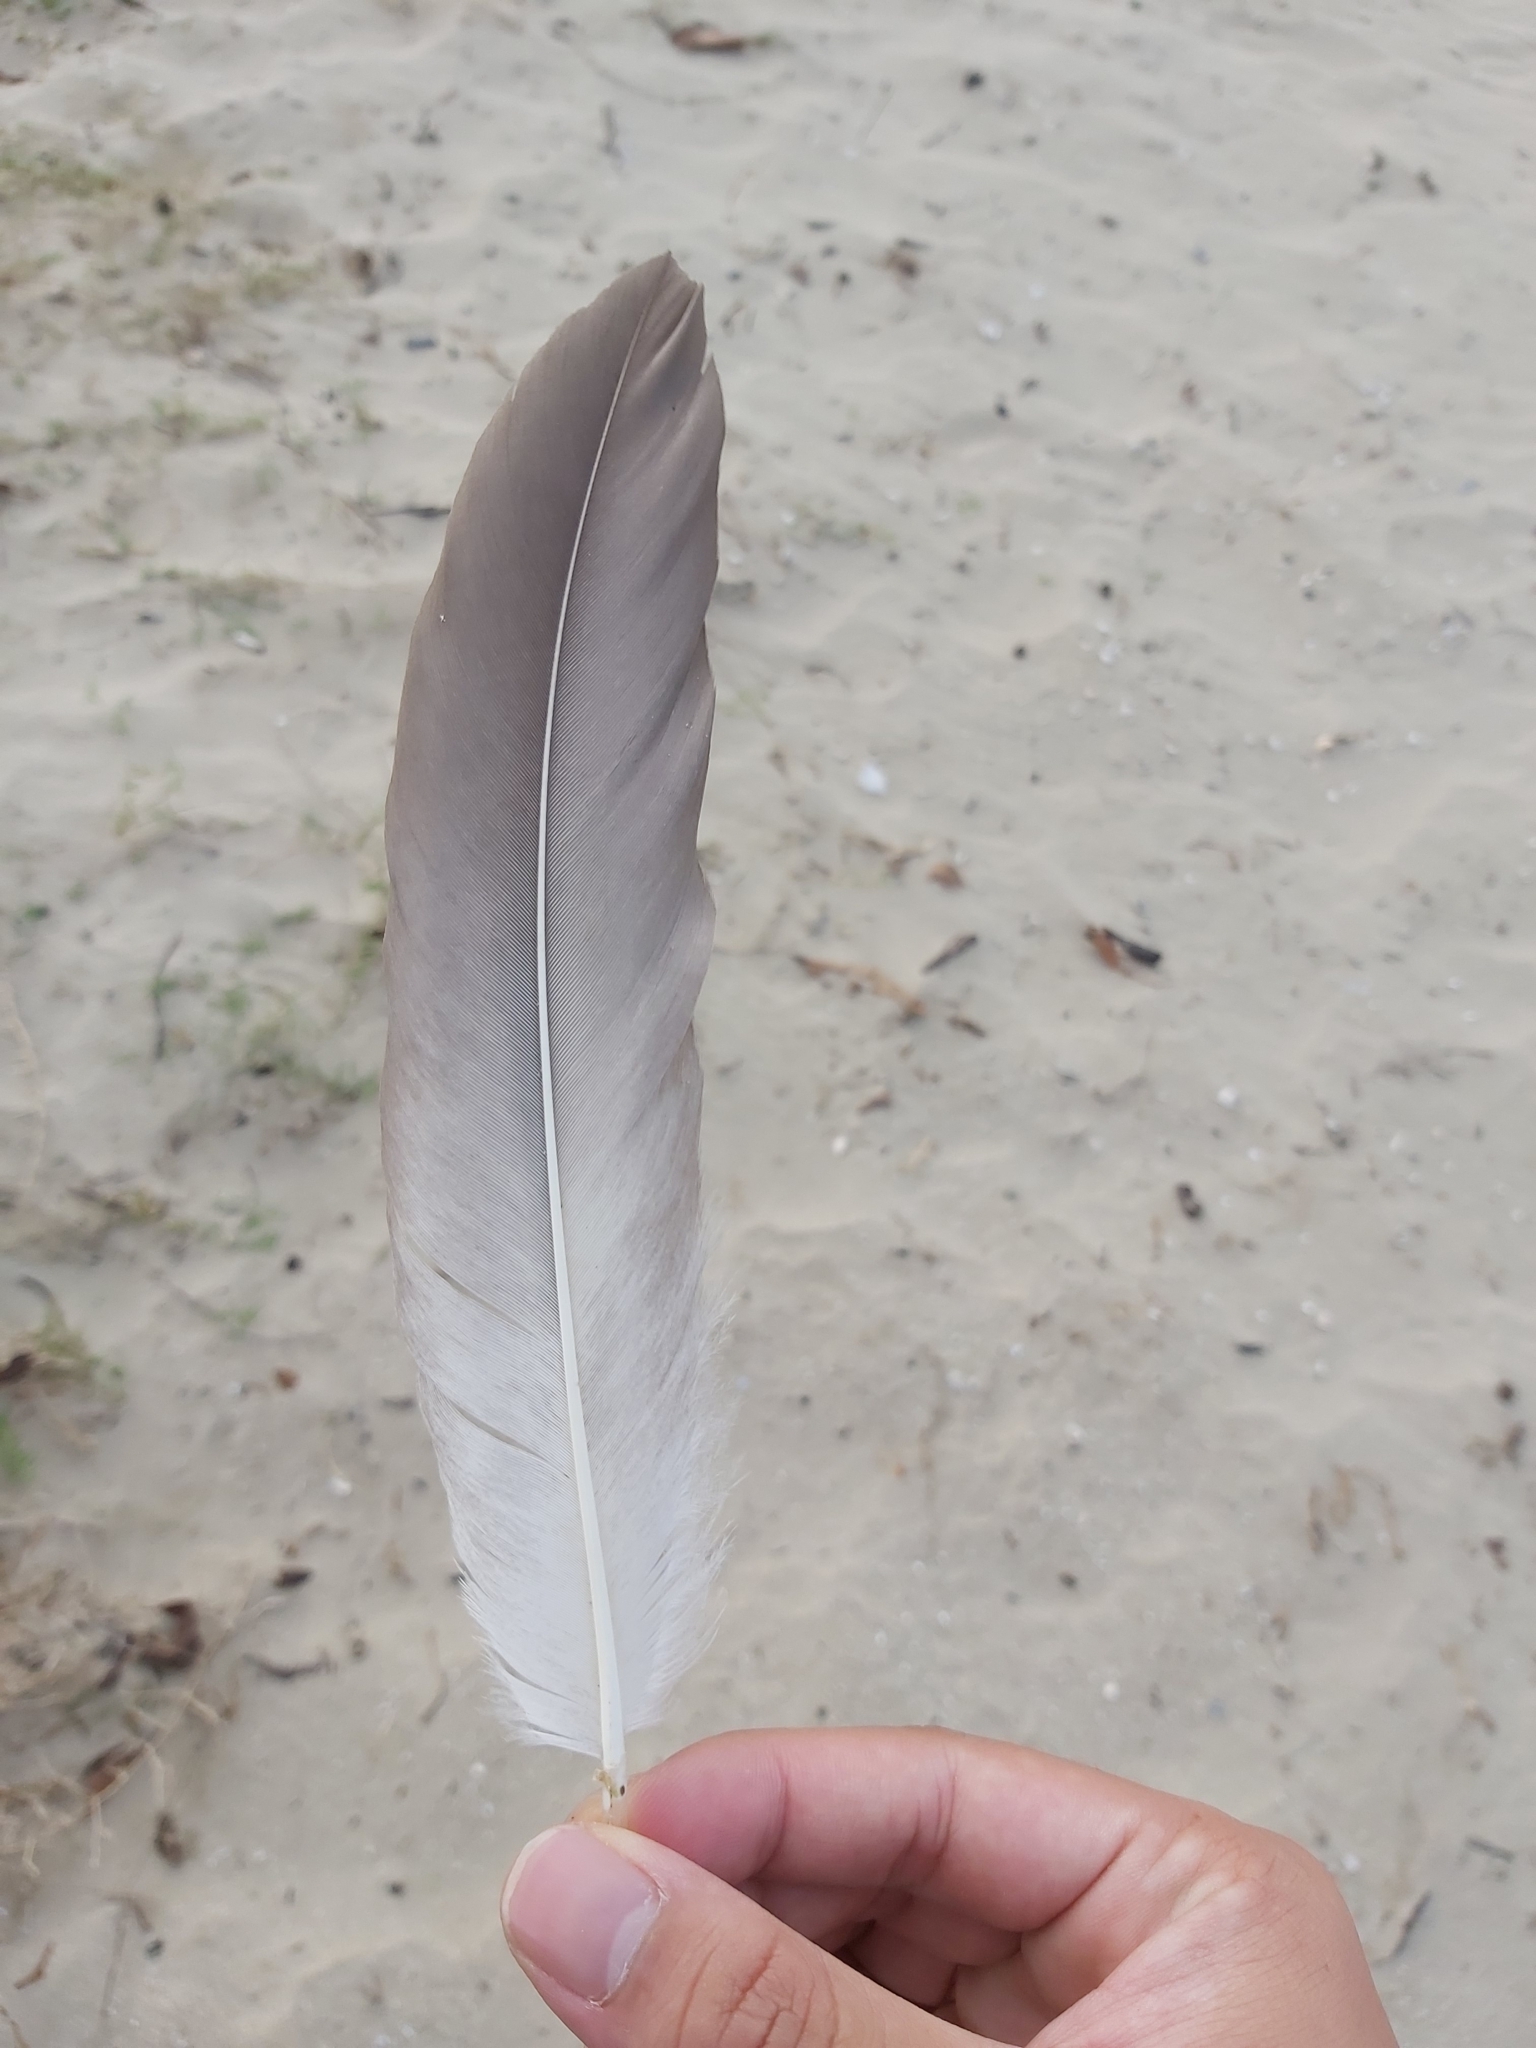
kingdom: Animalia
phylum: Chordata
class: Aves
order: Anseriformes
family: Anatidae
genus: Anser
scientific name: Anser anser
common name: Greylag goose
